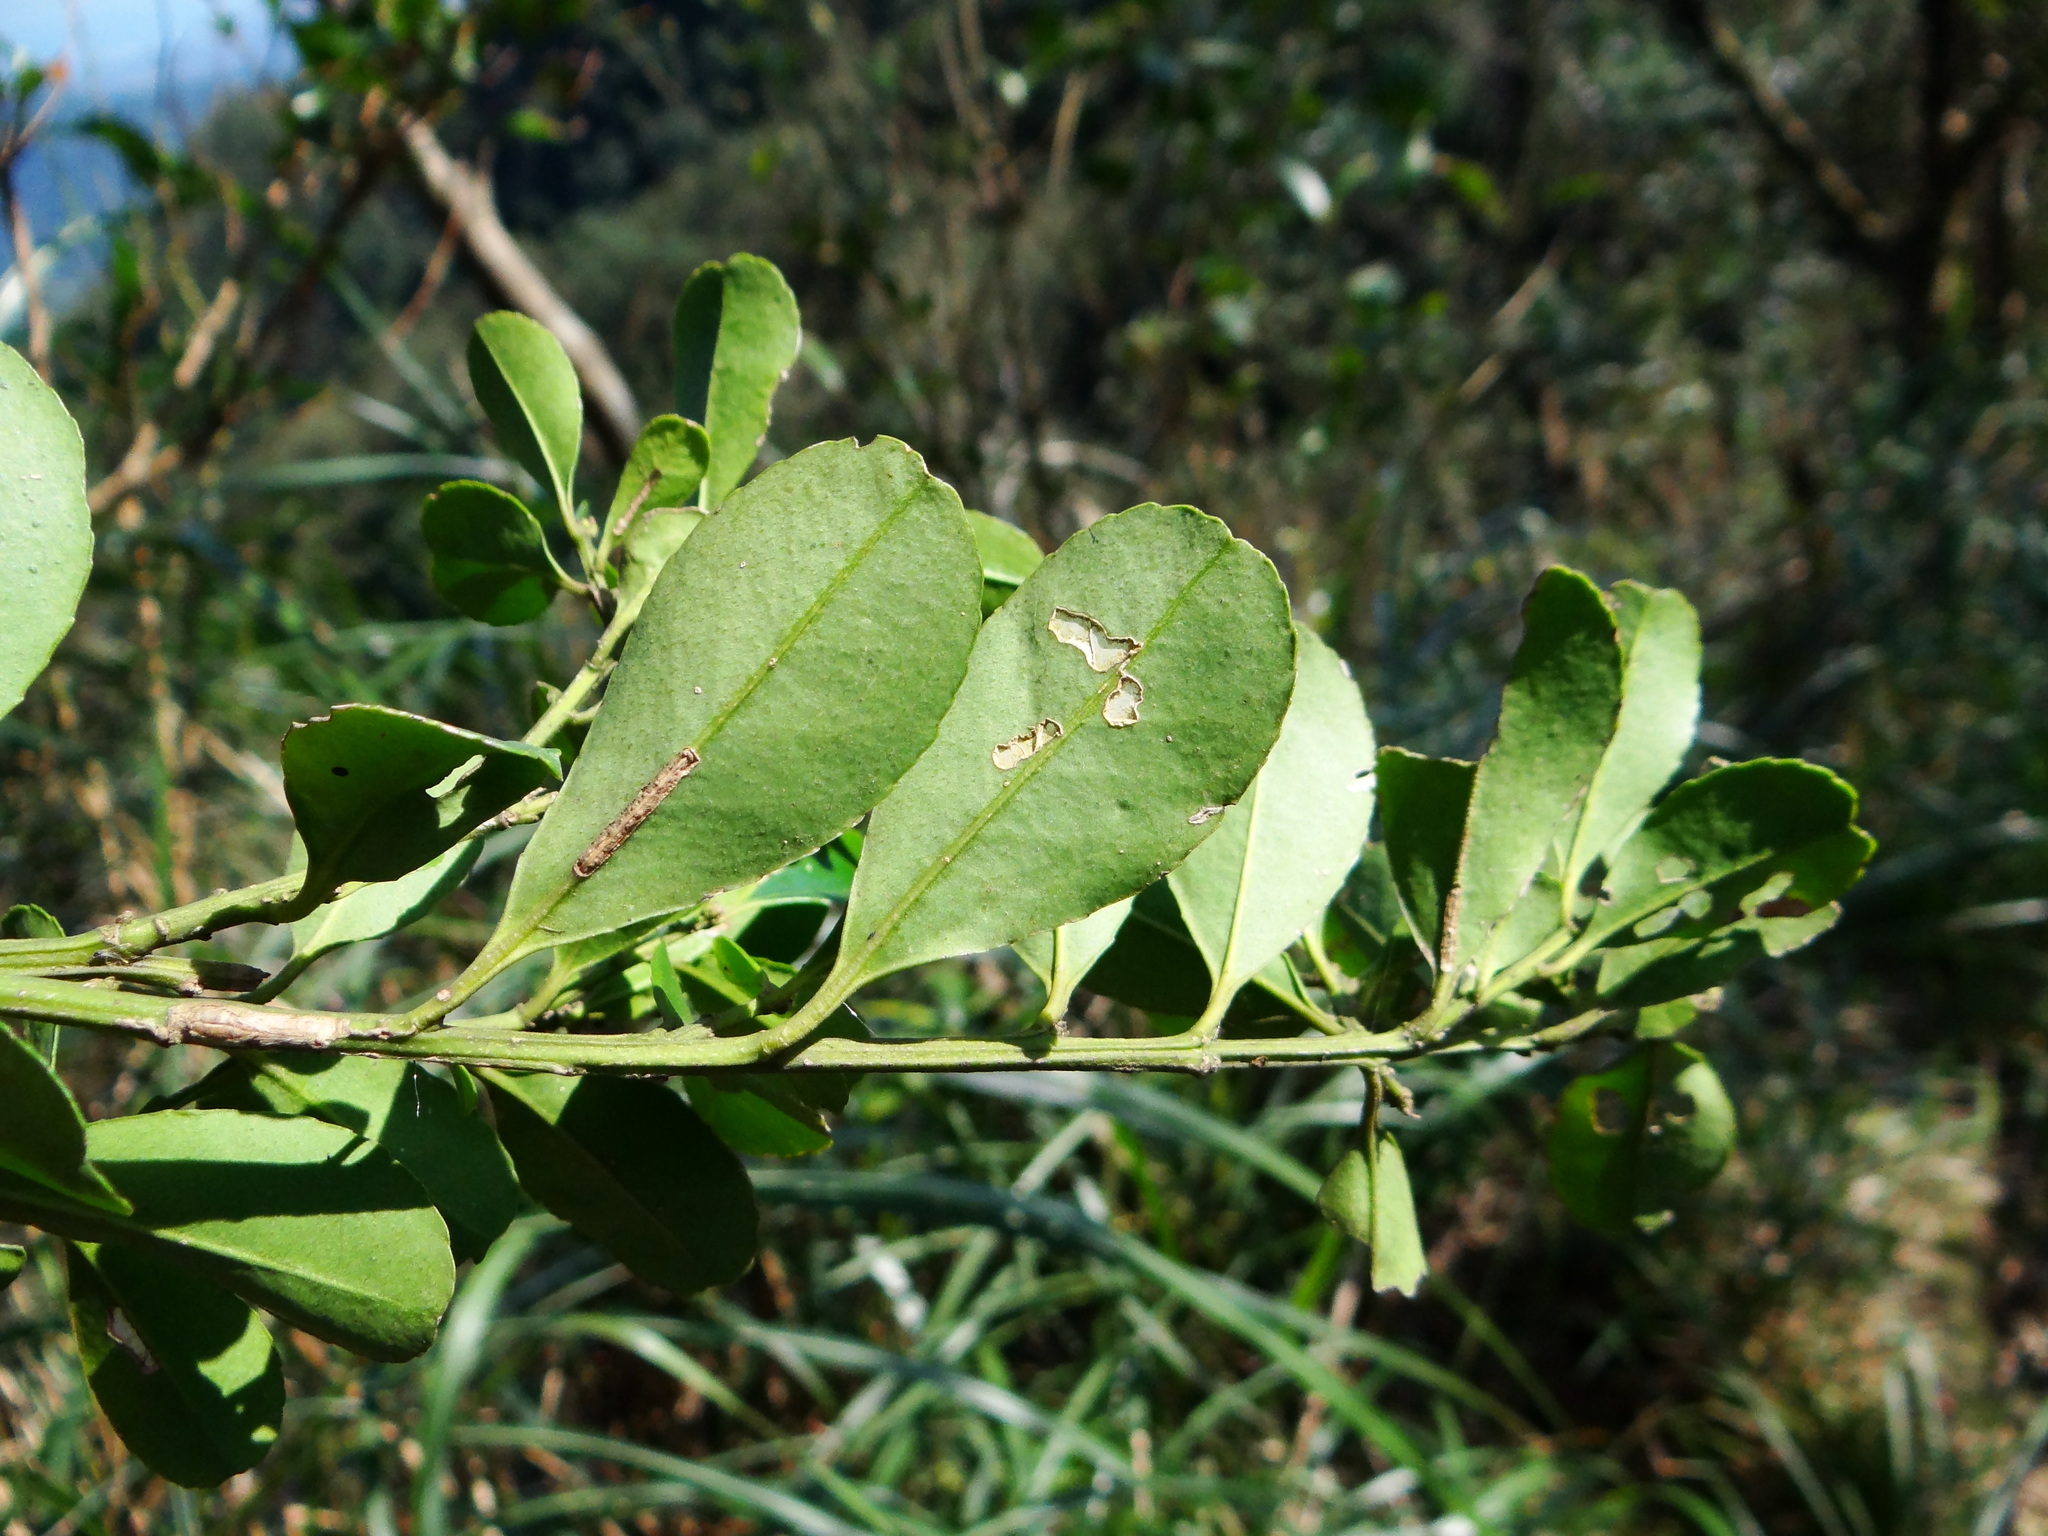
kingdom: Plantae
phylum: Tracheophyta
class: Magnoliopsida
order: Aquifoliales
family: Aquifoliaceae
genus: Ilex
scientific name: Ilex maximowicziana
